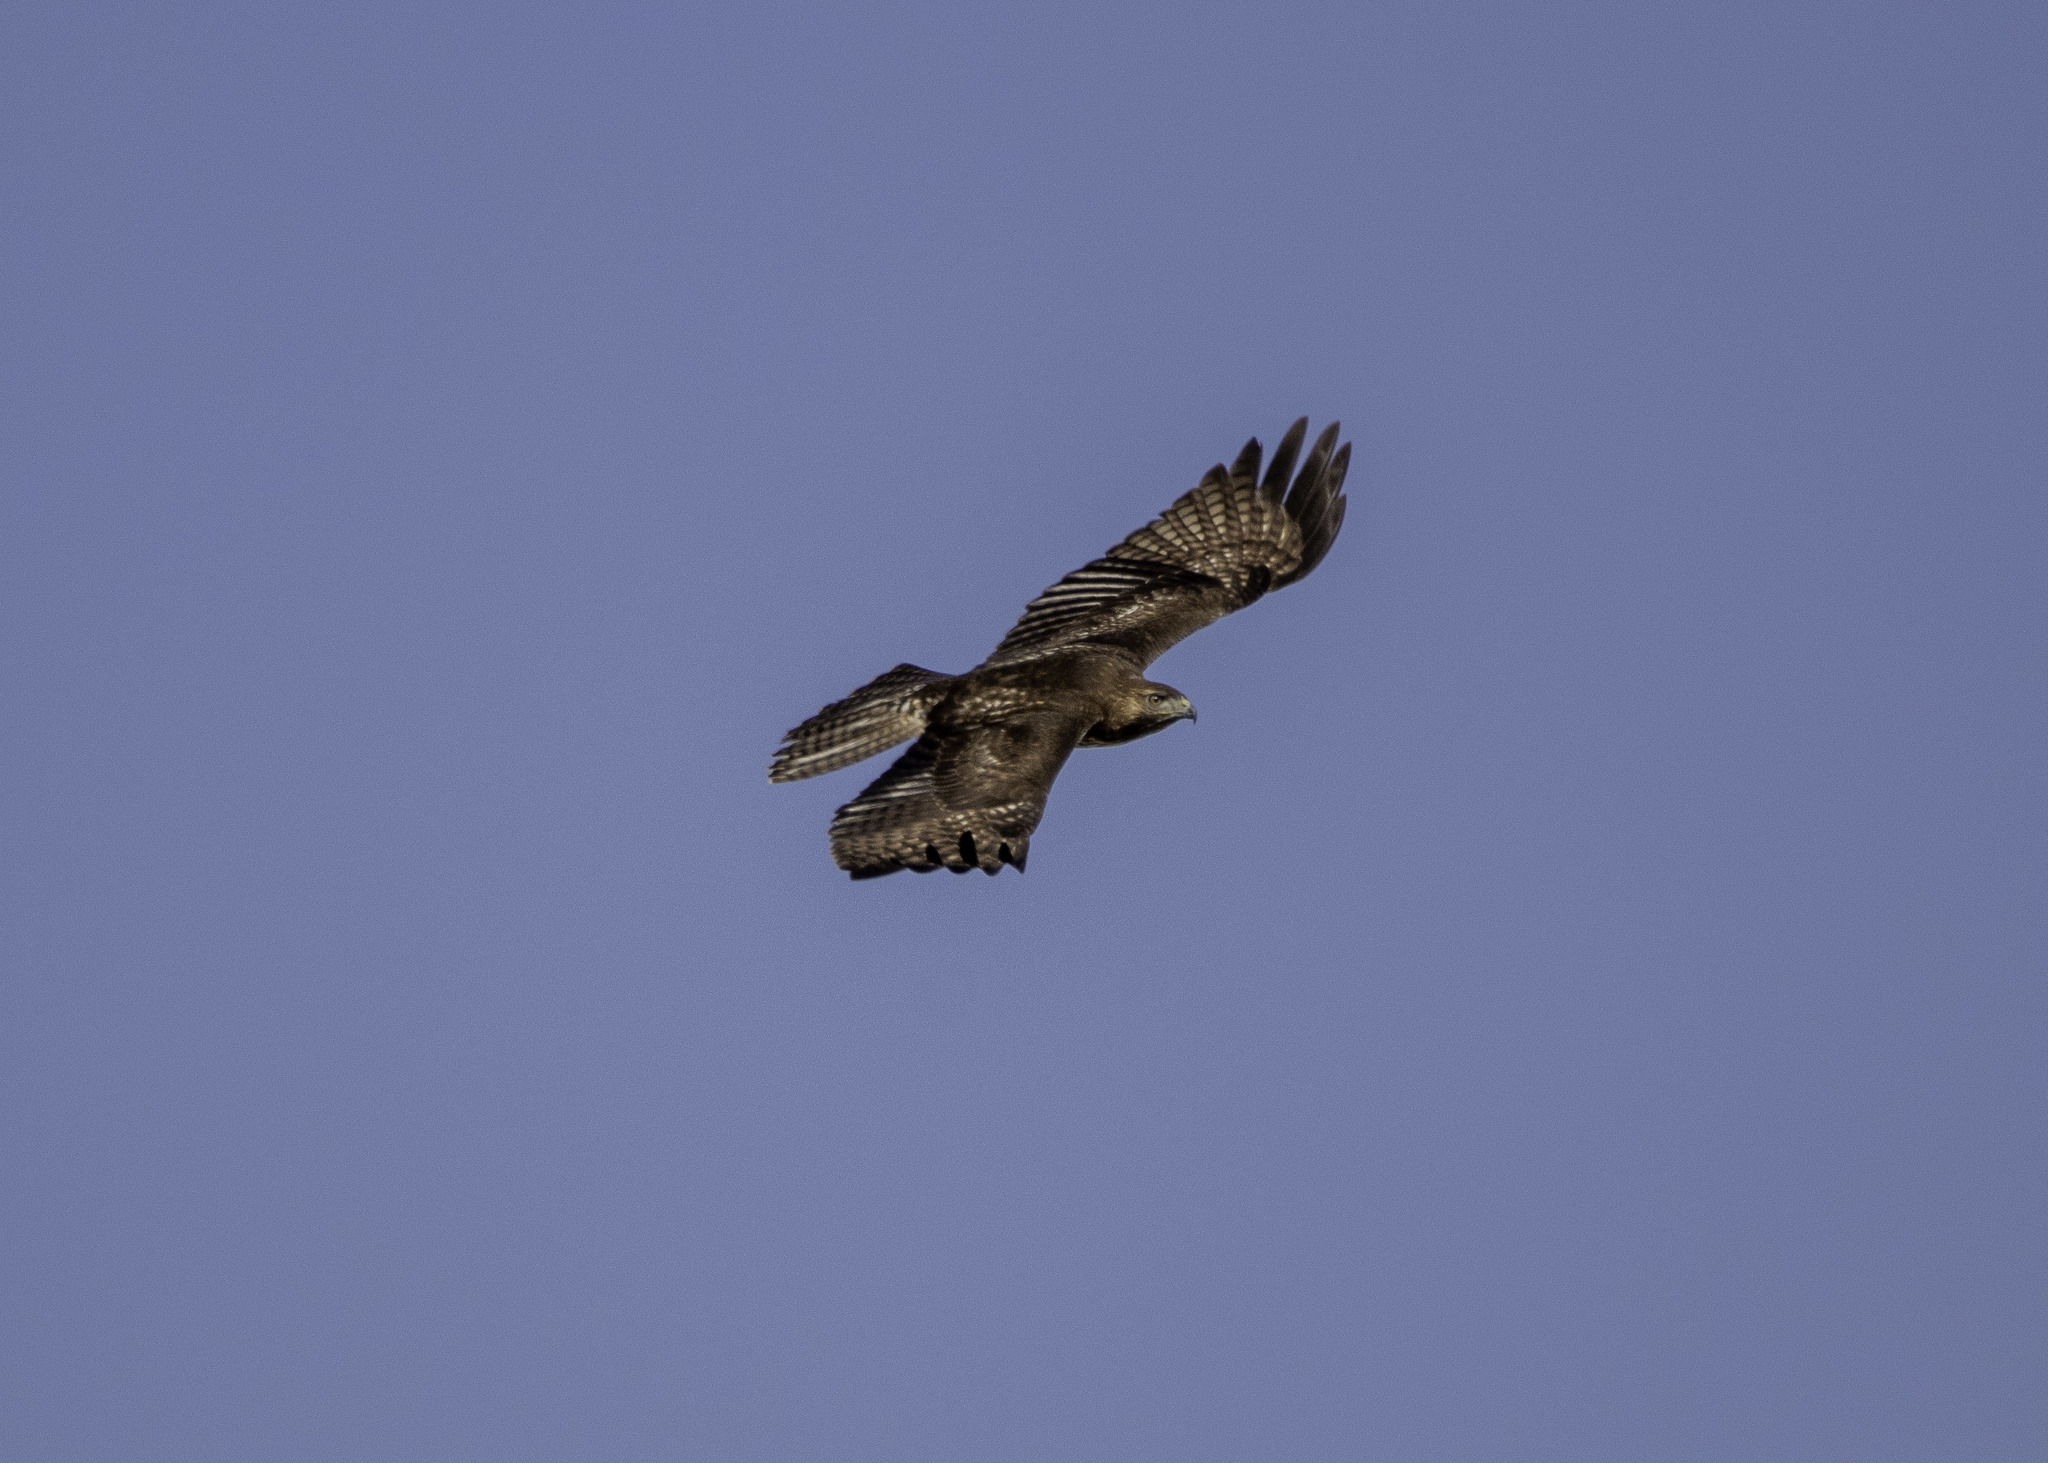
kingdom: Animalia
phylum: Chordata
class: Aves
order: Accipitriformes
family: Accipitridae
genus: Buteo
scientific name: Buteo jamaicensis
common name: Red-tailed hawk
